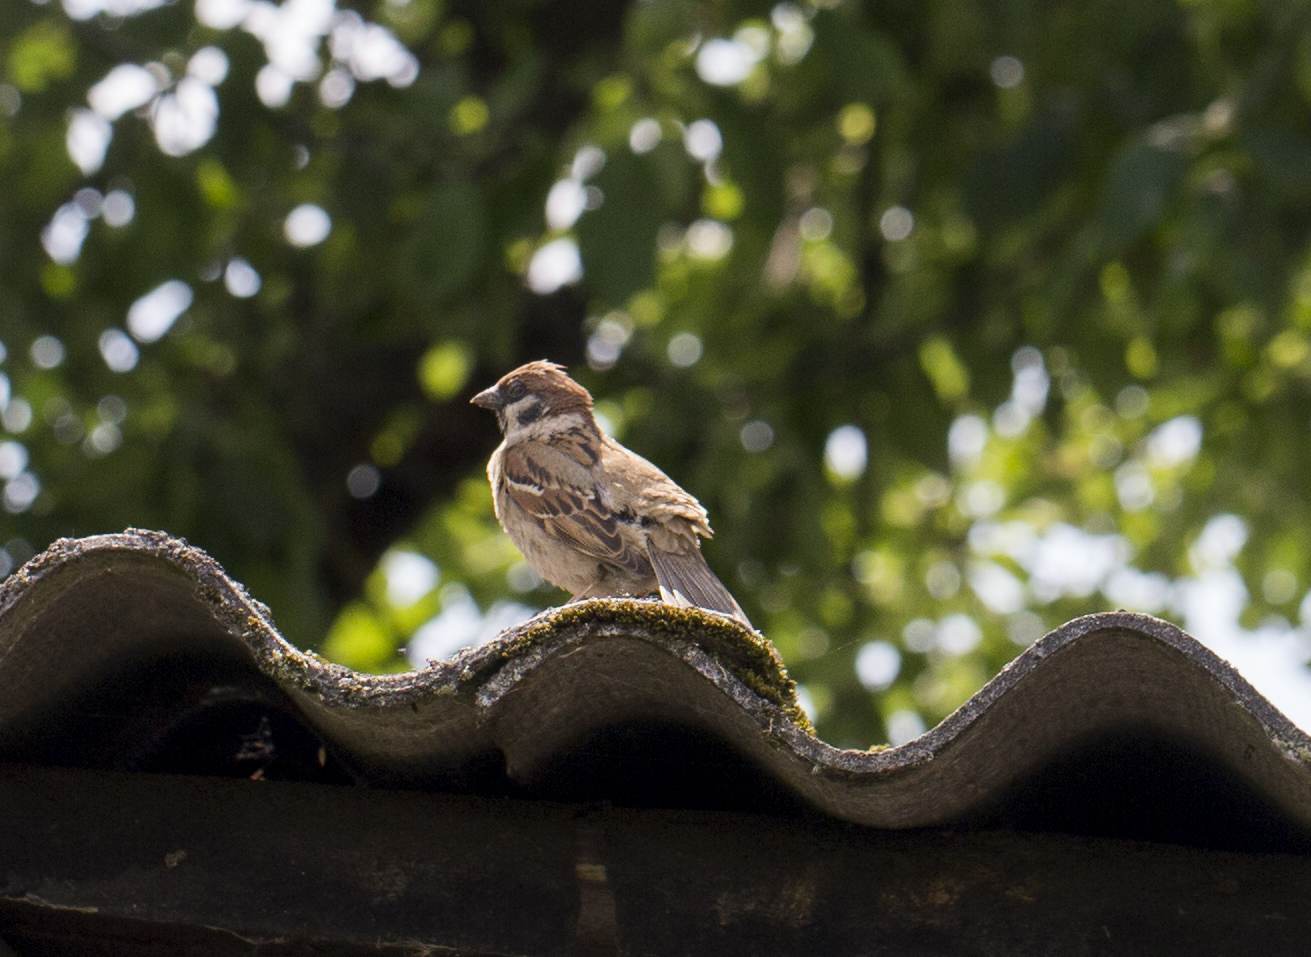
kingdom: Animalia
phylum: Chordata
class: Aves
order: Passeriformes
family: Passeridae
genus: Passer
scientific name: Passer montanus
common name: Eurasian tree sparrow
